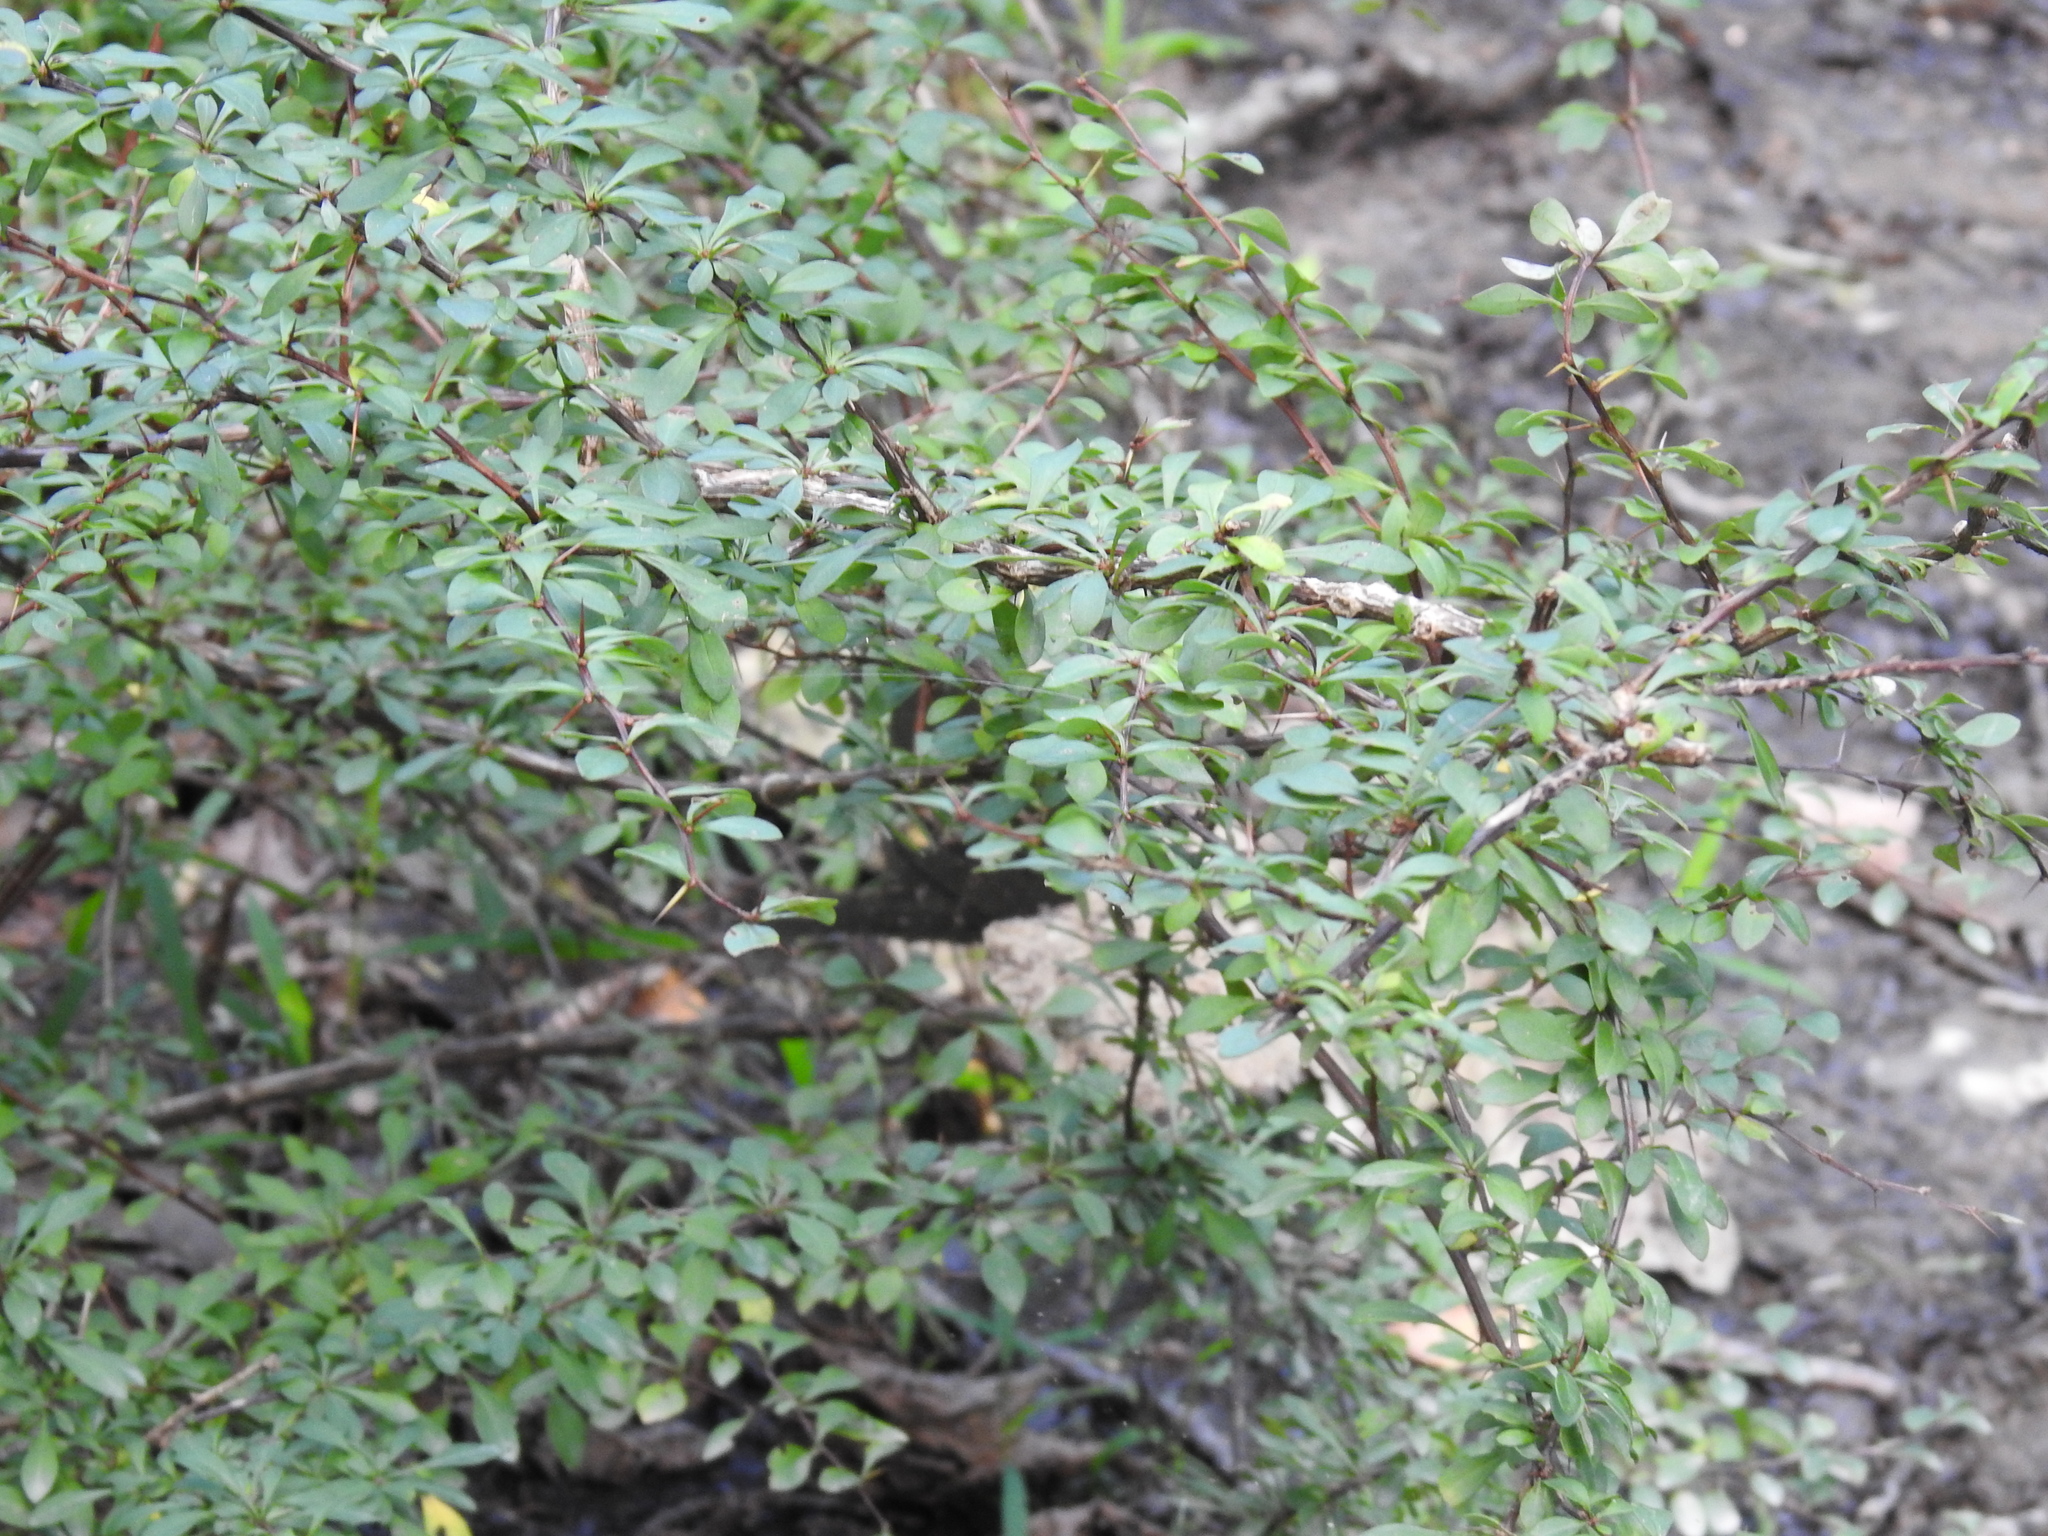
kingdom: Plantae
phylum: Tracheophyta
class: Magnoliopsida
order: Ranunculales
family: Berberidaceae
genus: Berberis
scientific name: Berberis thunbergii
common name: Japanese barberry
